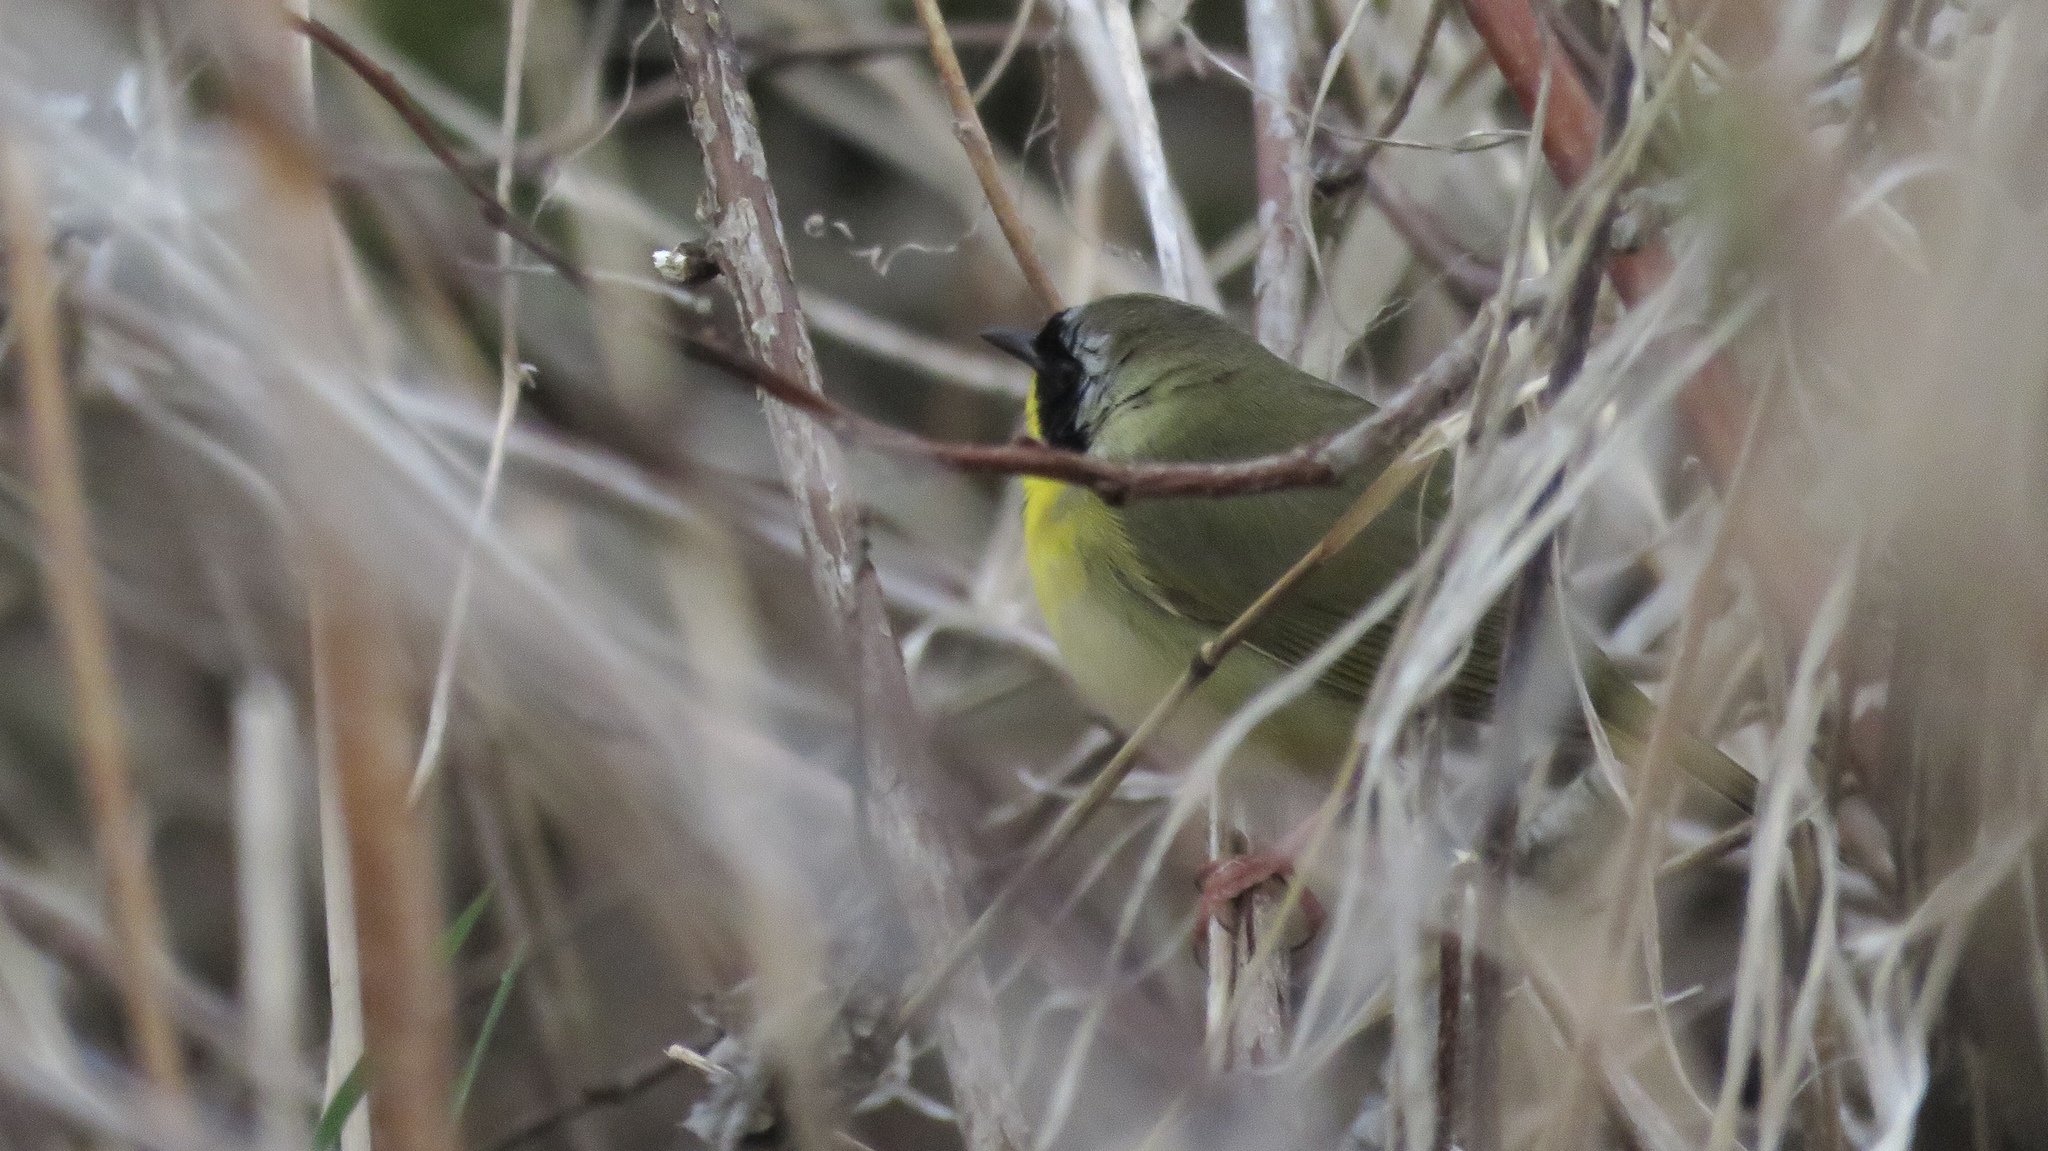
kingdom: Animalia
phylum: Chordata
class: Aves
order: Passeriformes
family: Parulidae
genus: Geothlypis
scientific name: Geothlypis trichas
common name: Common yellowthroat
